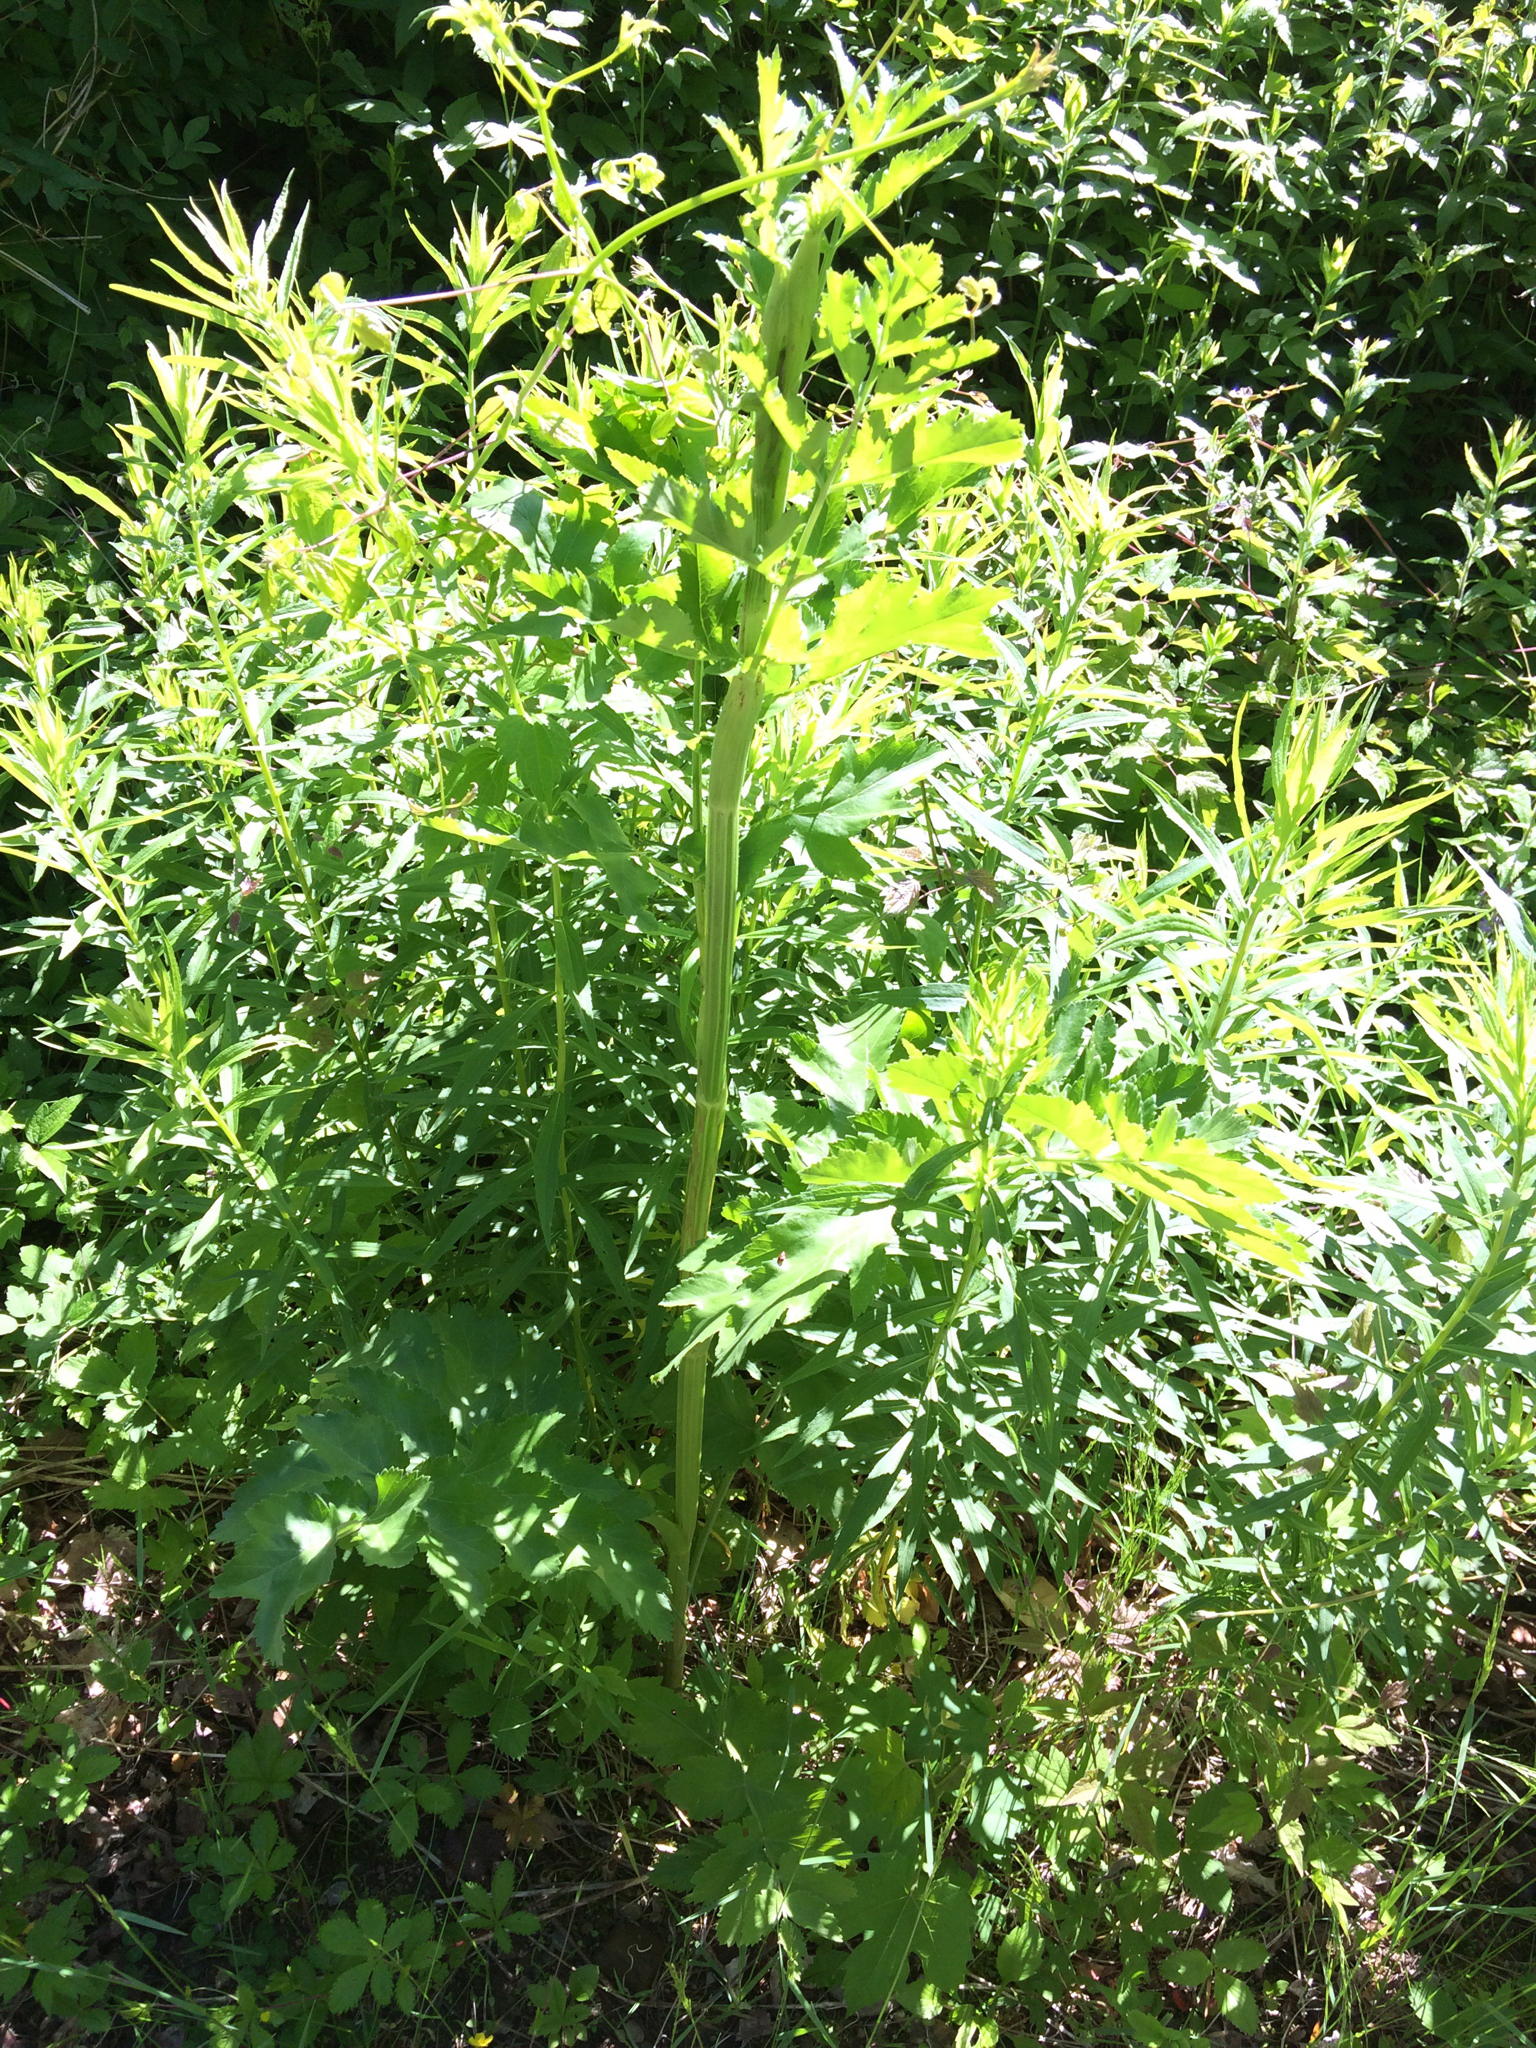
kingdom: Plantae
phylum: Tracheophyta
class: Magnoliopsida
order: Apiales
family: Apiaceae
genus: Pastinaca
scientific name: Pastinaca sativa
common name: Wild parsnip
